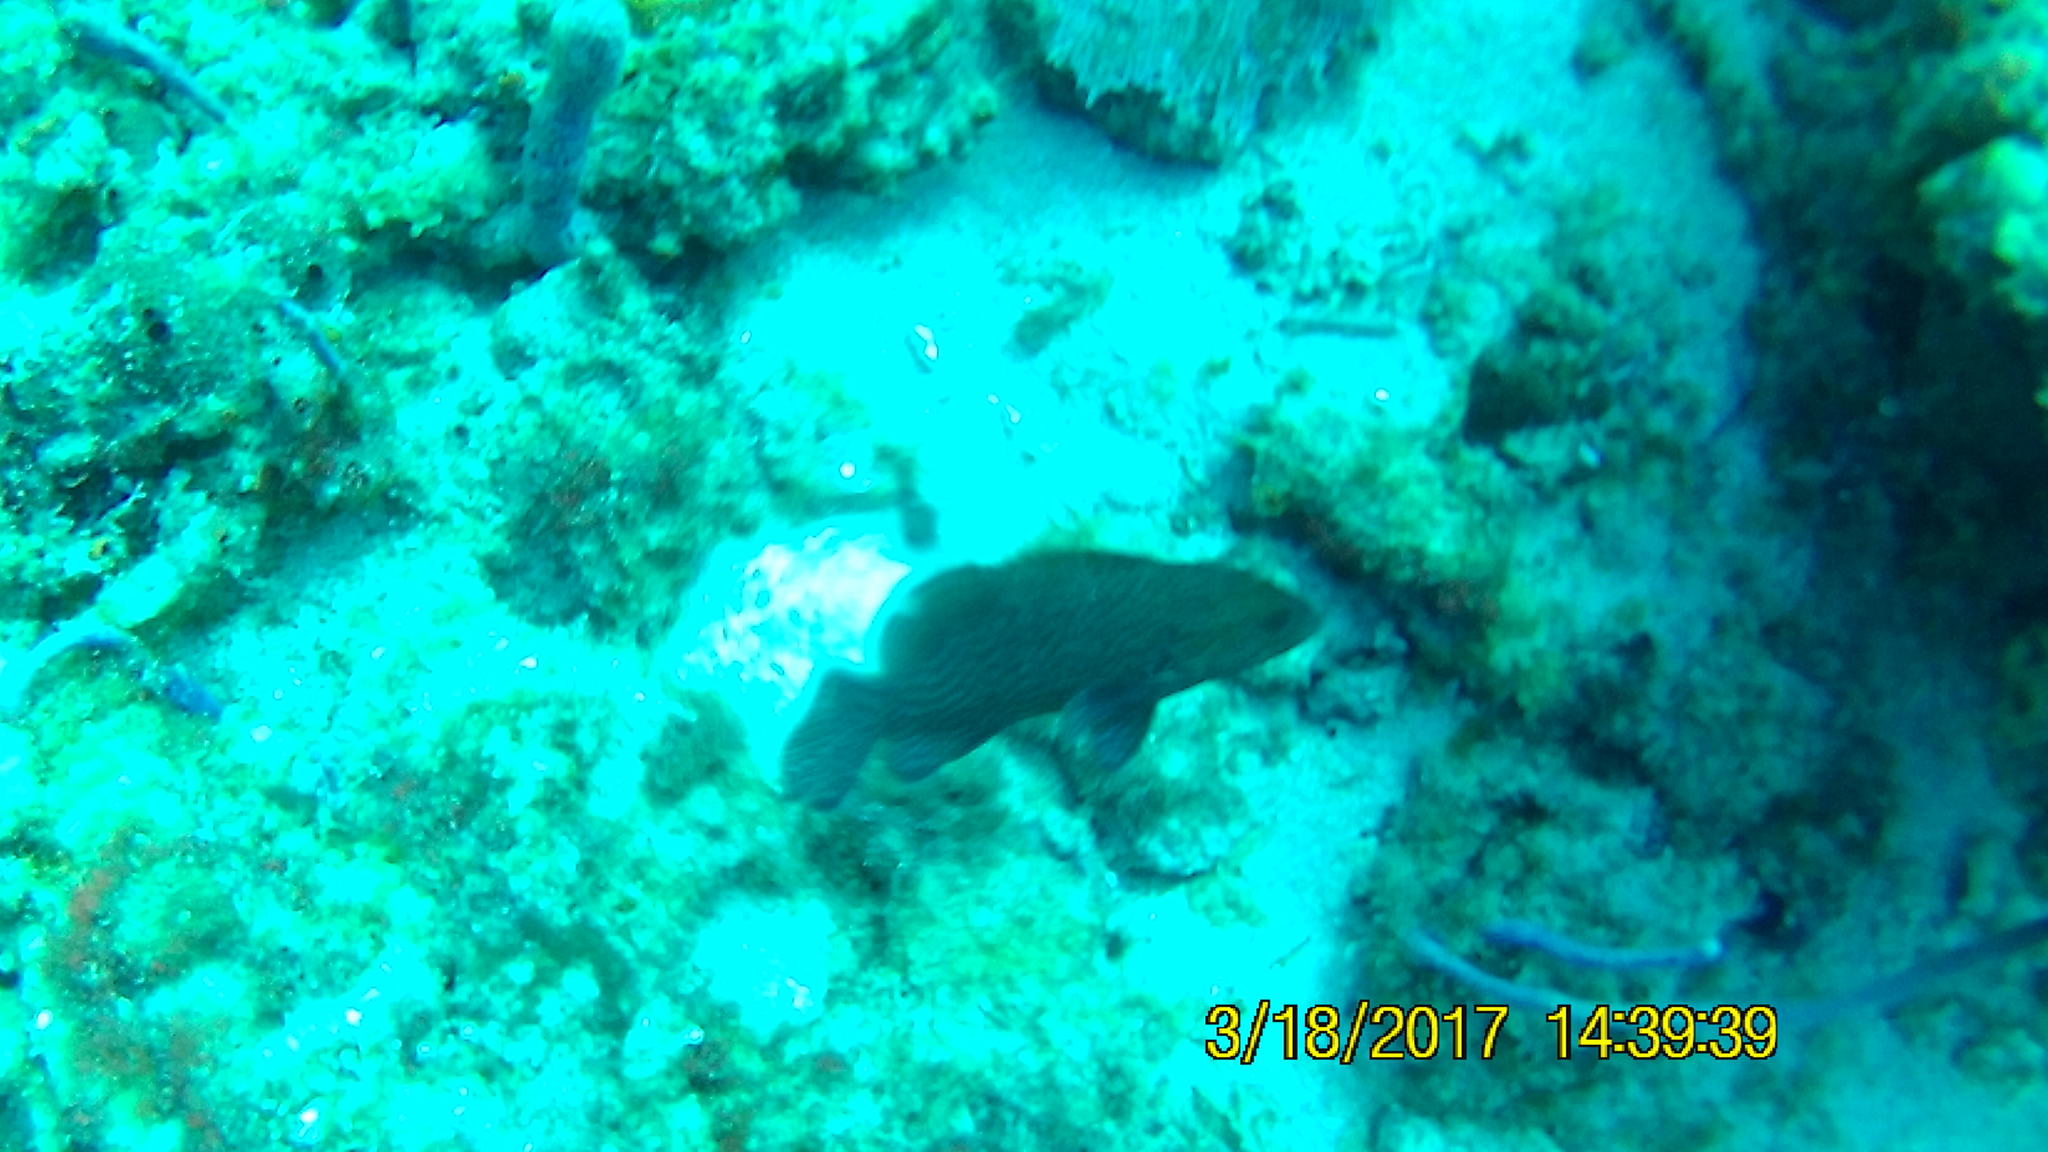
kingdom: Animalia
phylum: Chordata
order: Perciformes
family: Serranidae
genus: Cephalopholis
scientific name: Cephalopholis cruentata
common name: Graysby
